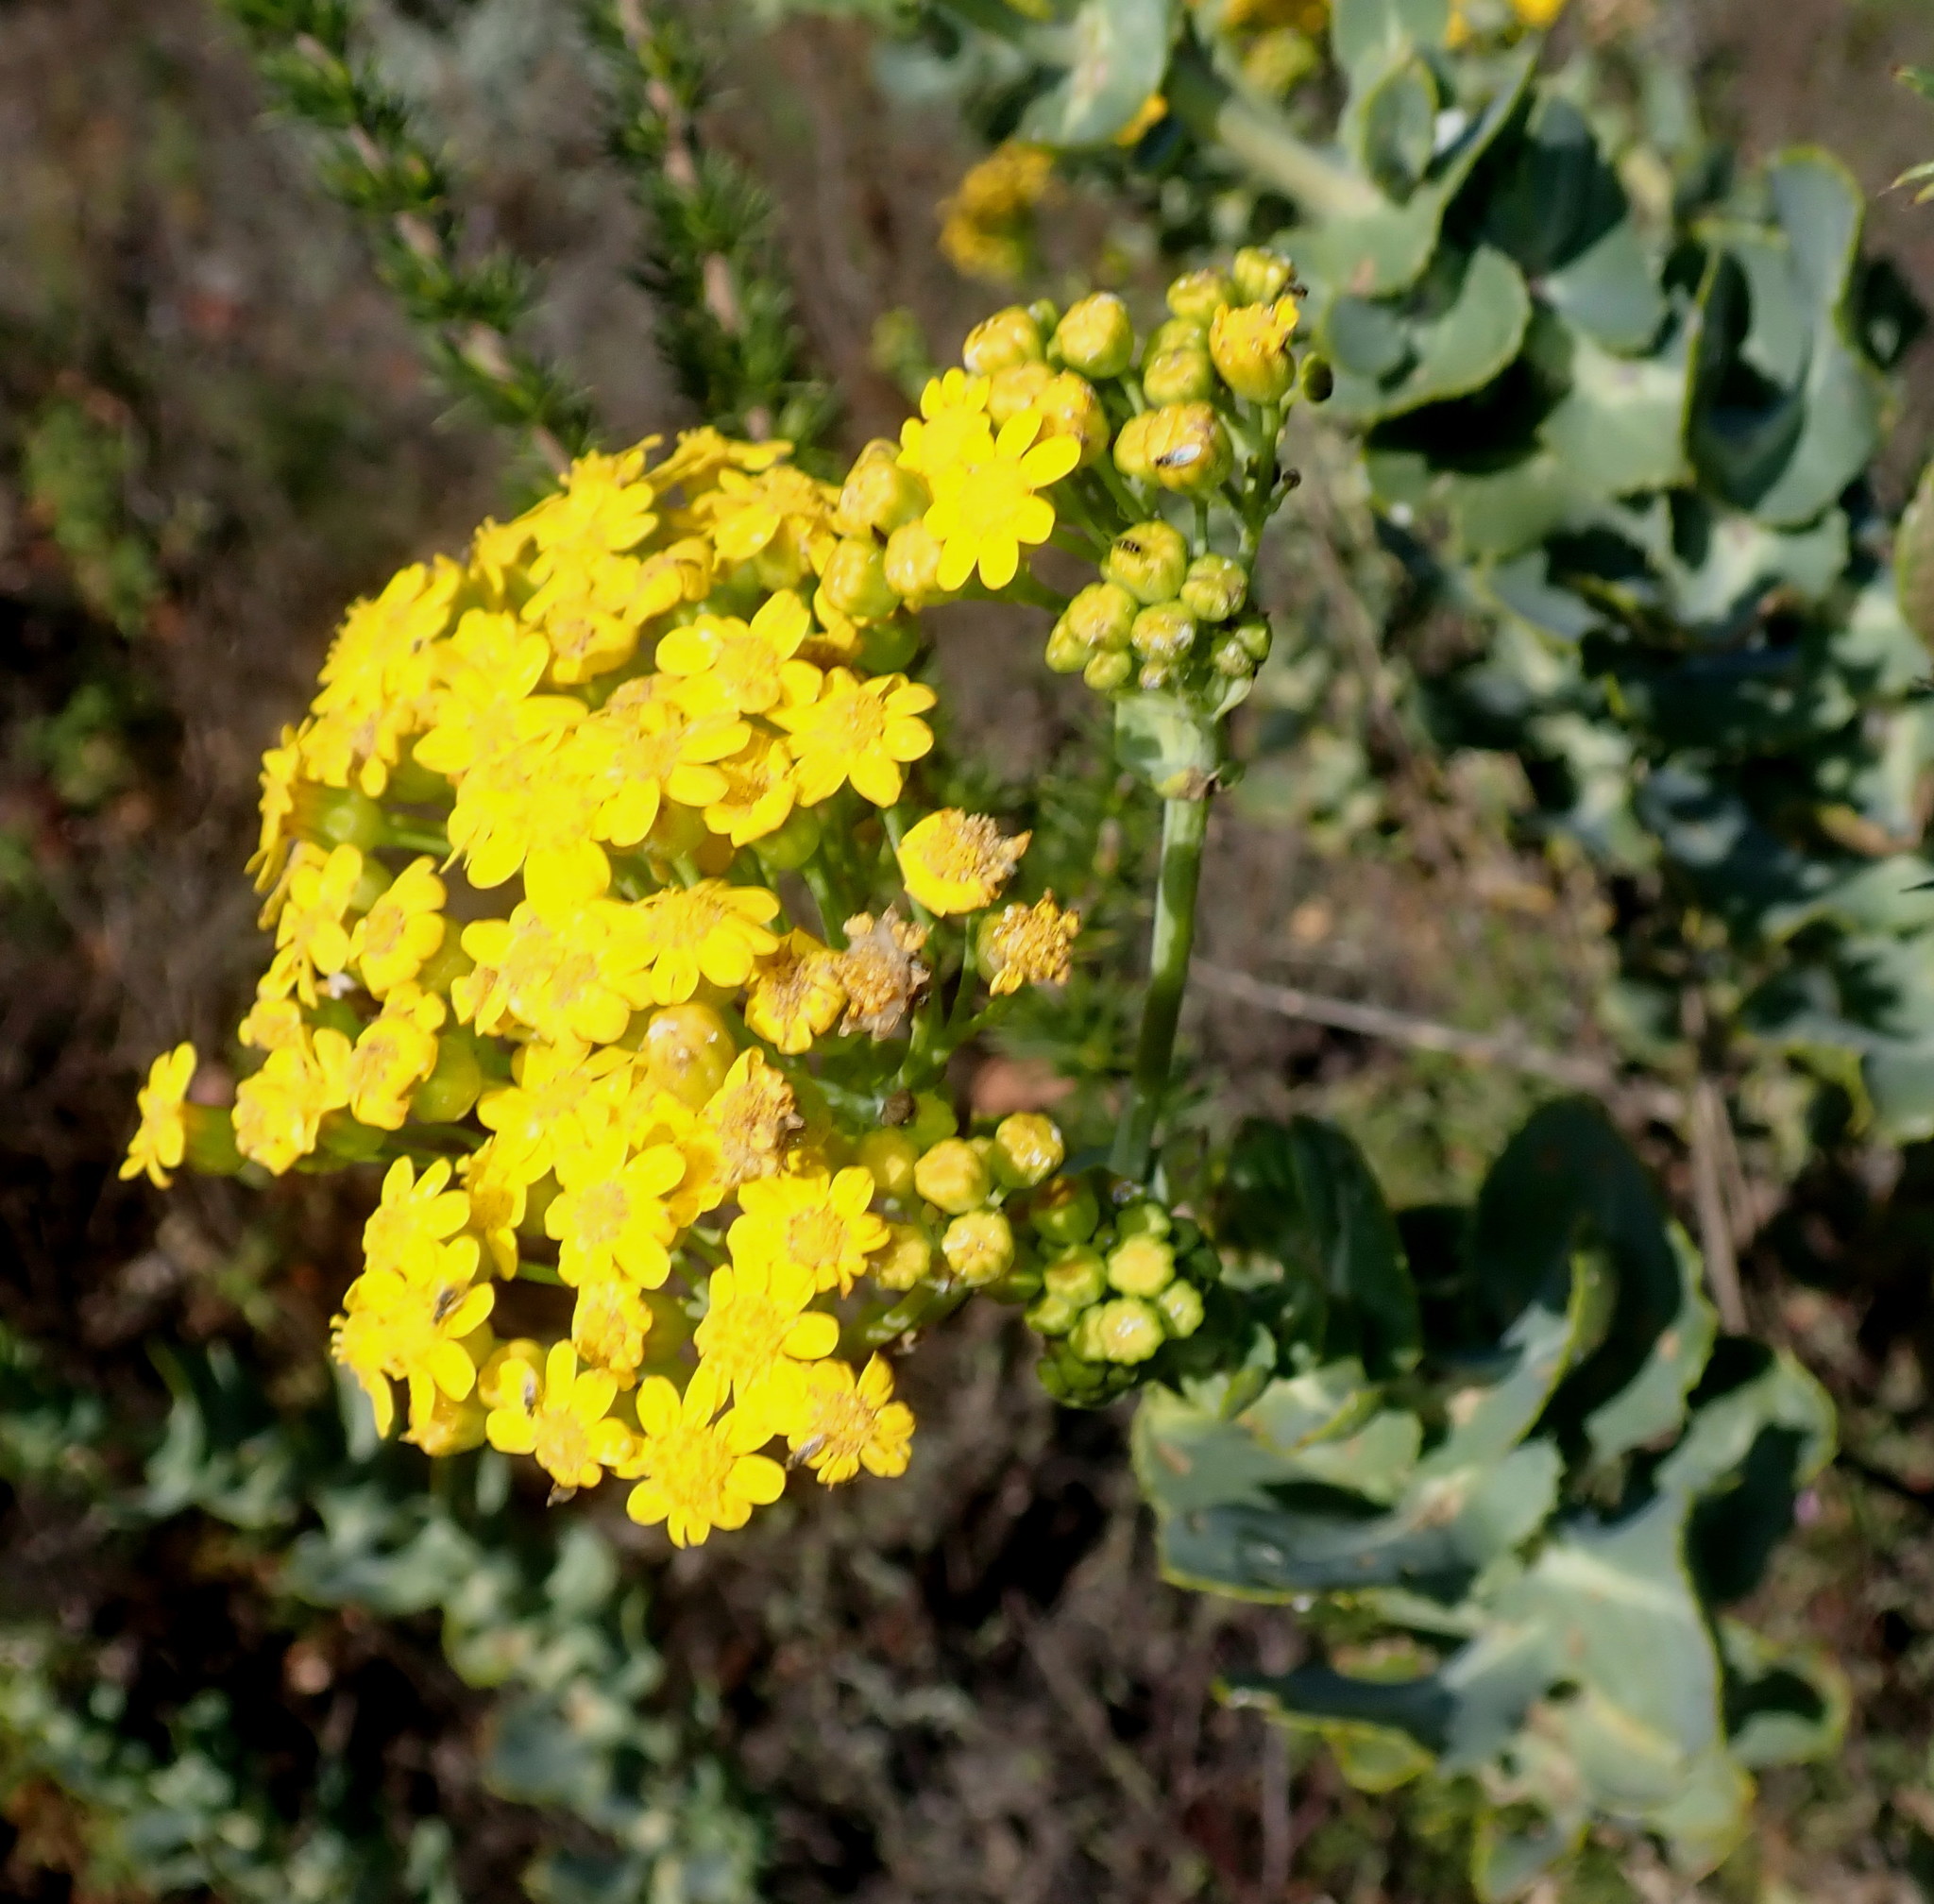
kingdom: Plantae
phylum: Tracheophyta
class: Magnoliopsida
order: Asterales
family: Asteraceae
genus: Othonna
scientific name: Othonna parviflora
